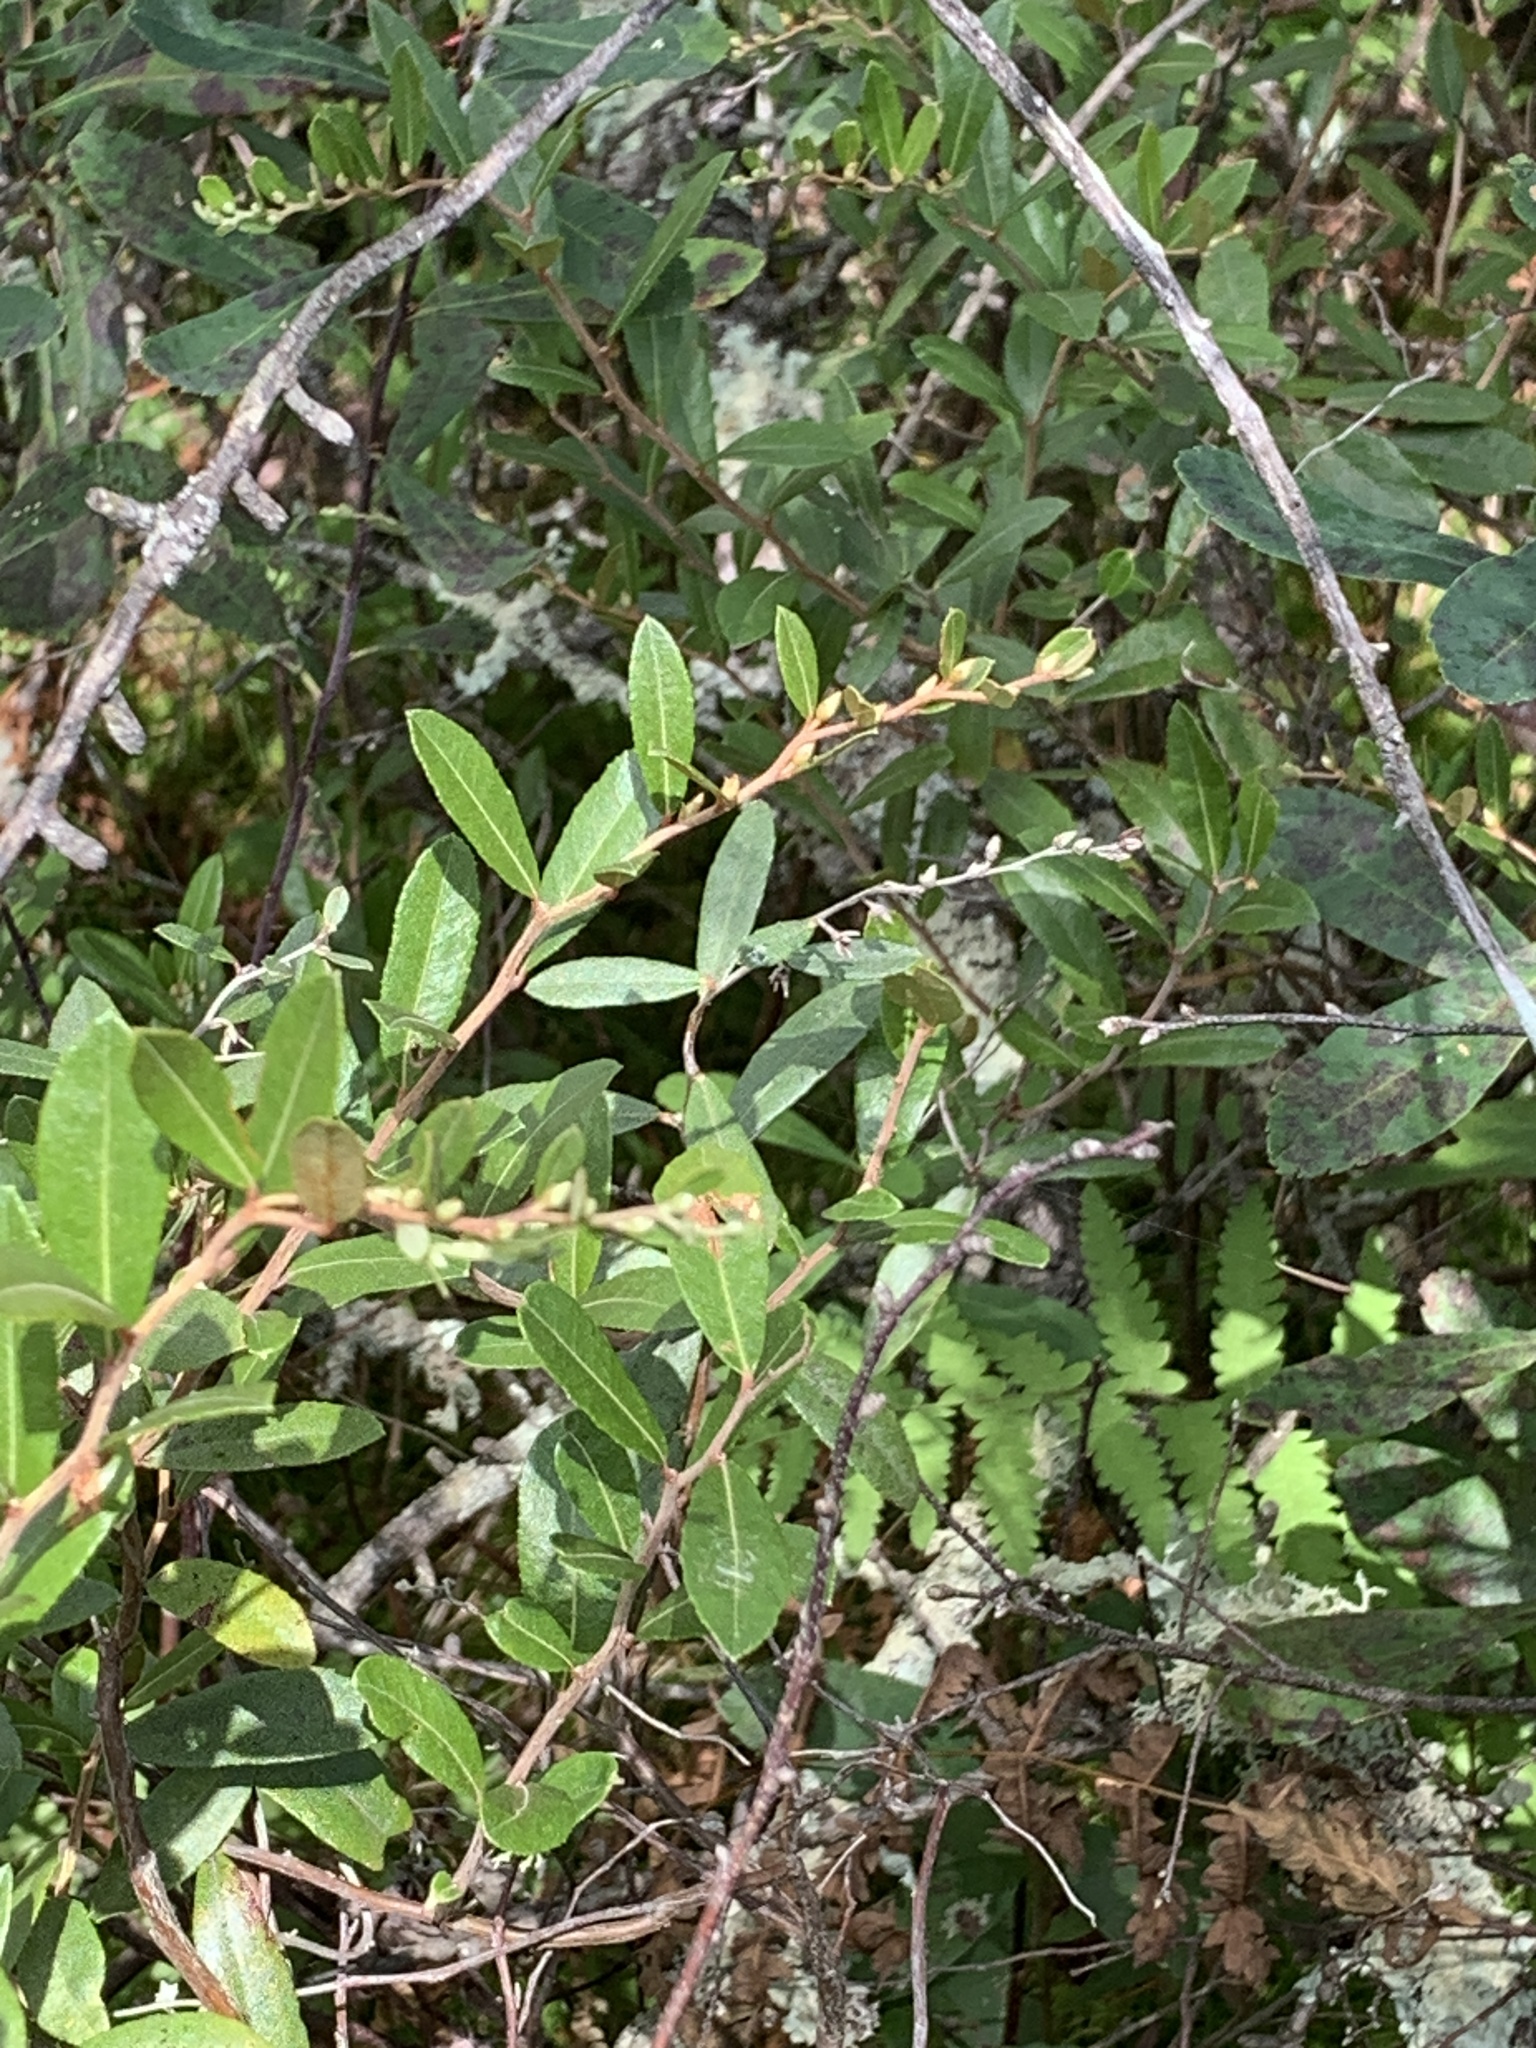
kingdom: Plantae
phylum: Tracheophyta
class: Magnoliopsida
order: Ericales
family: Ericaceae
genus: Chamaedaphne
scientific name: Chamaedaphne calyculata
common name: Leatherleaf
